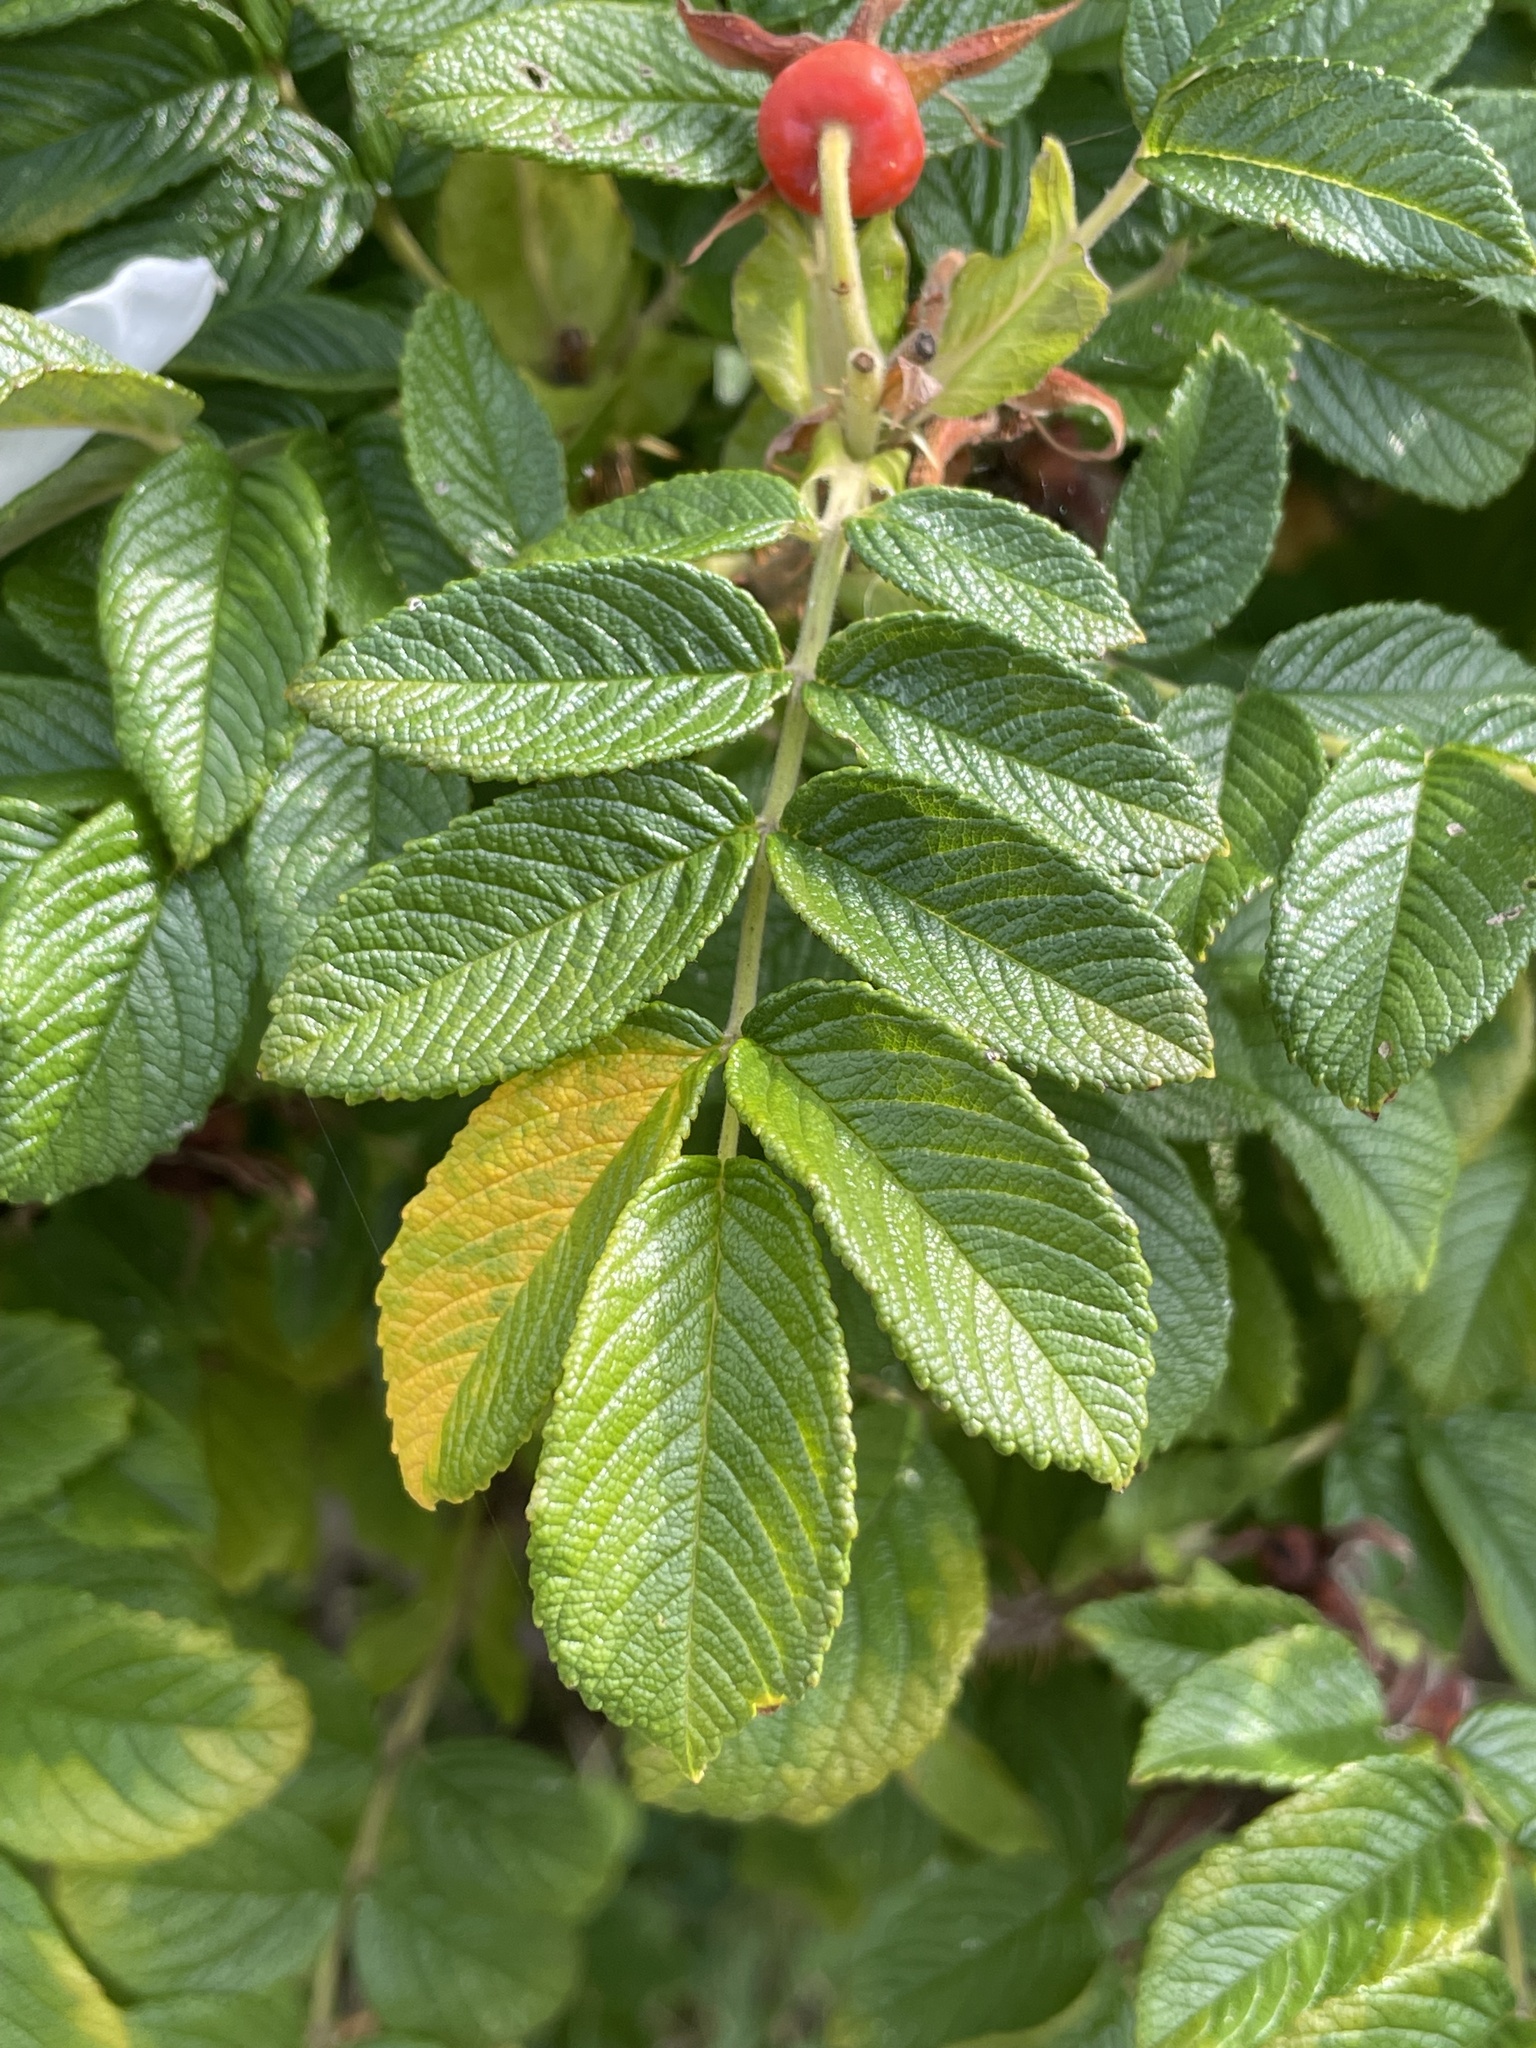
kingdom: Plantae
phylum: Tracheophyta
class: Magnoliopsida
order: Rosales
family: Rosaceae
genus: Rosa
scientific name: Rosa rugosa
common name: Japanese rose
